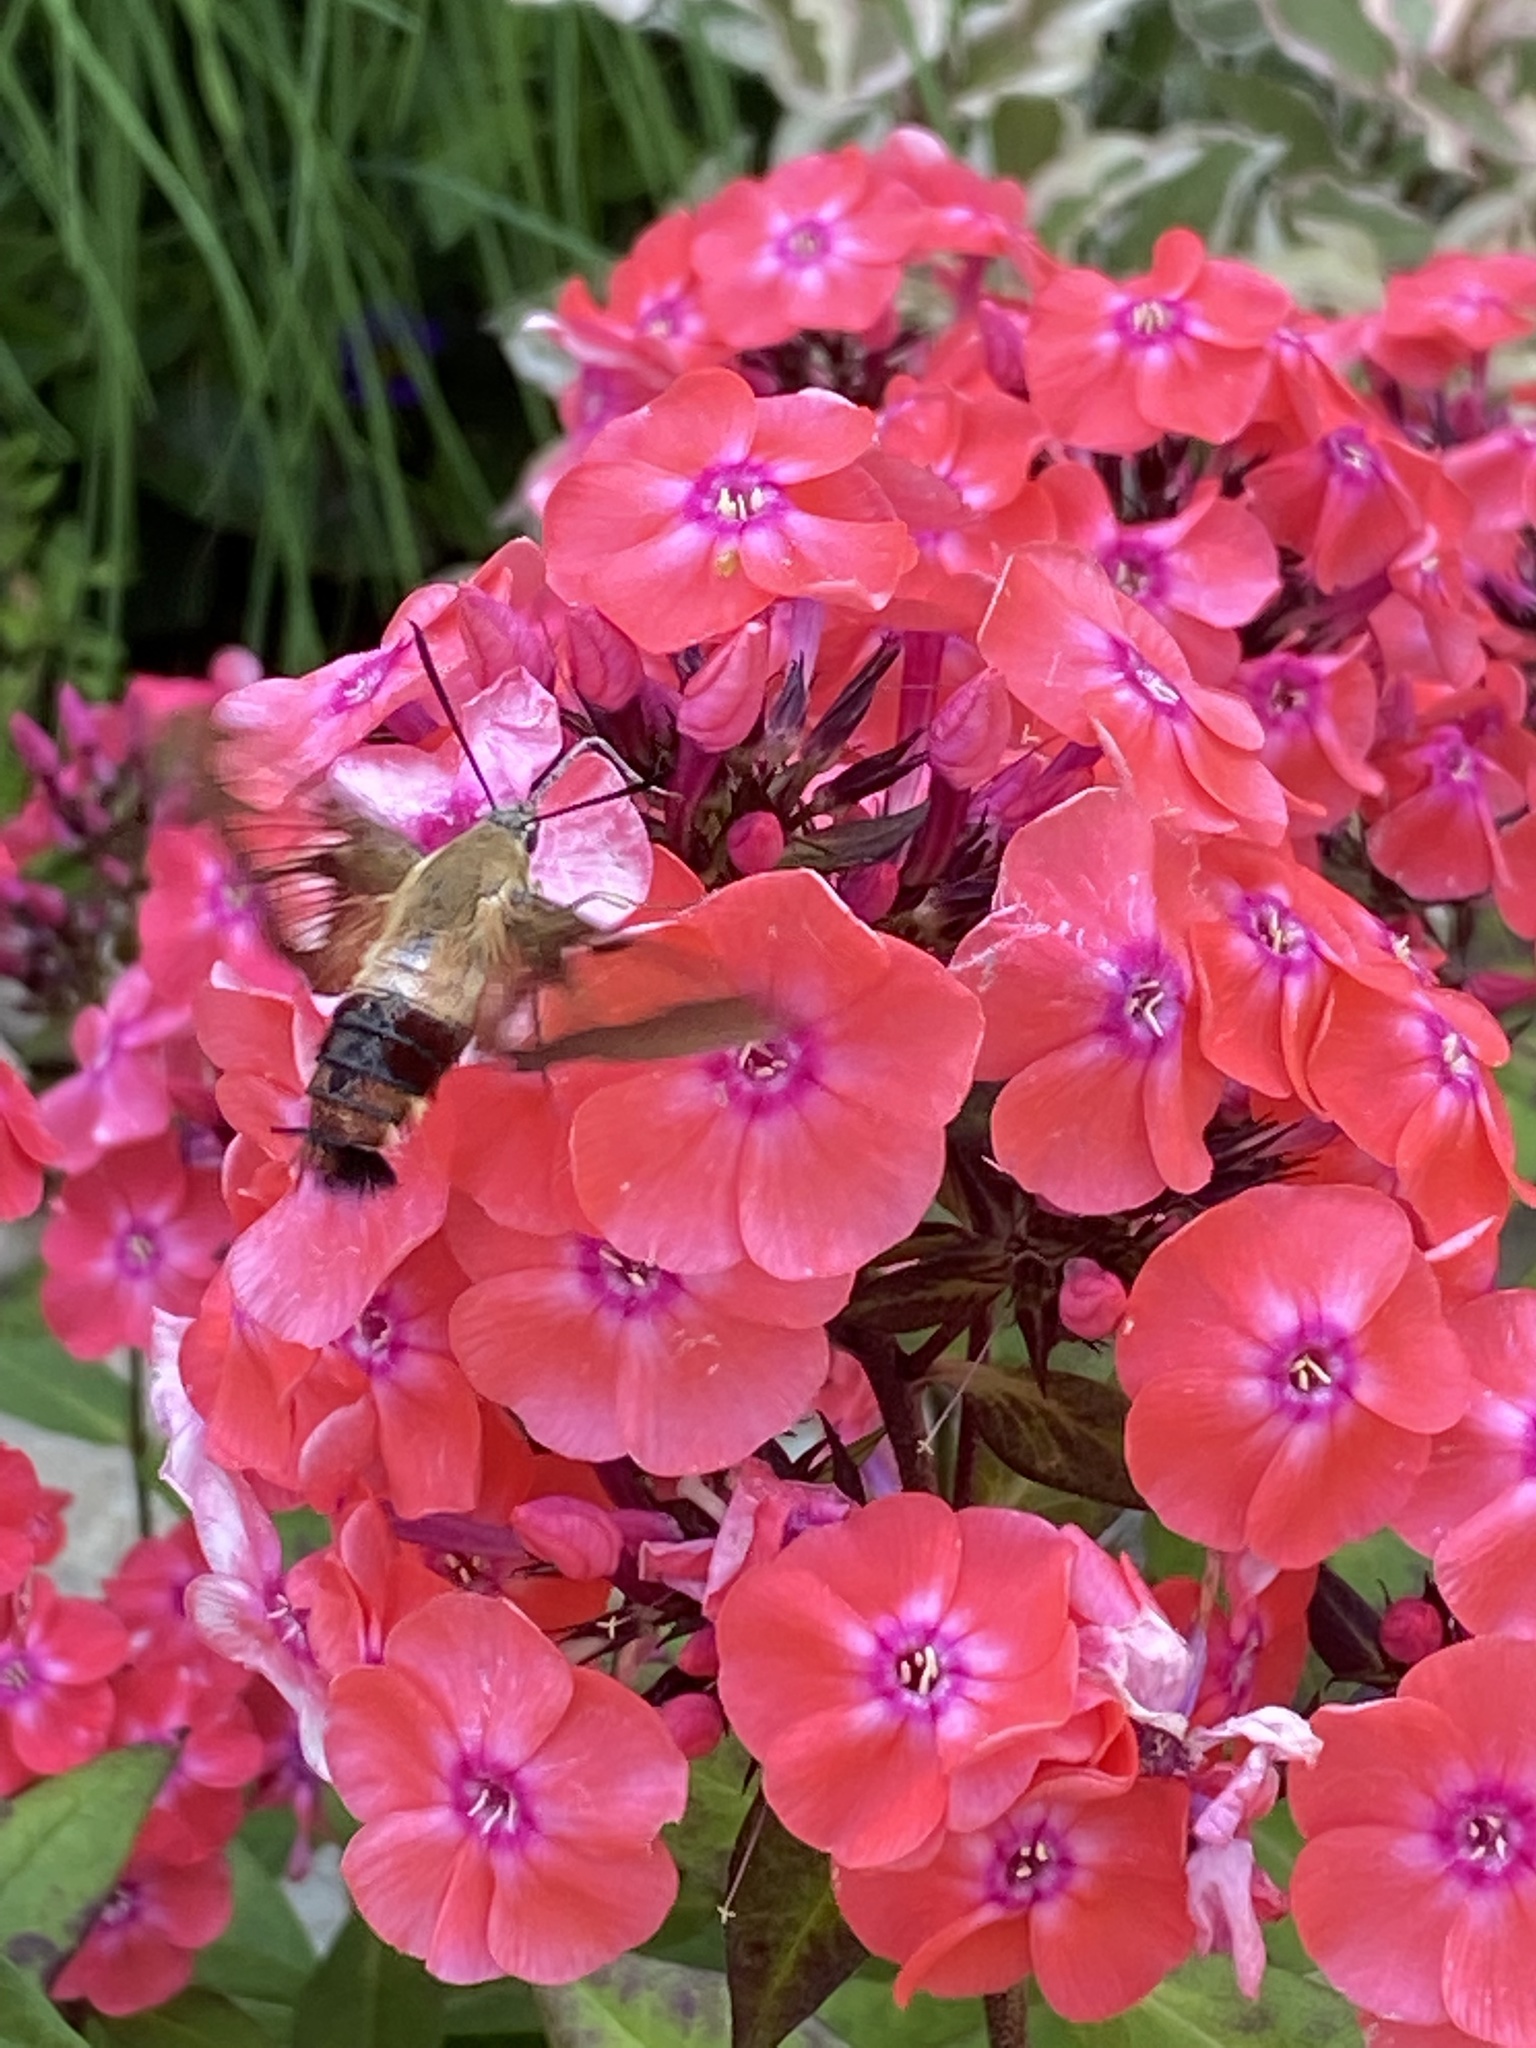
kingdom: Animalia
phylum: Arthropoda
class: Insecta
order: Lepidoptera
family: Sphingidae
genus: Hemaris
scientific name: Hemaris thysbe
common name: Common clear-wing
